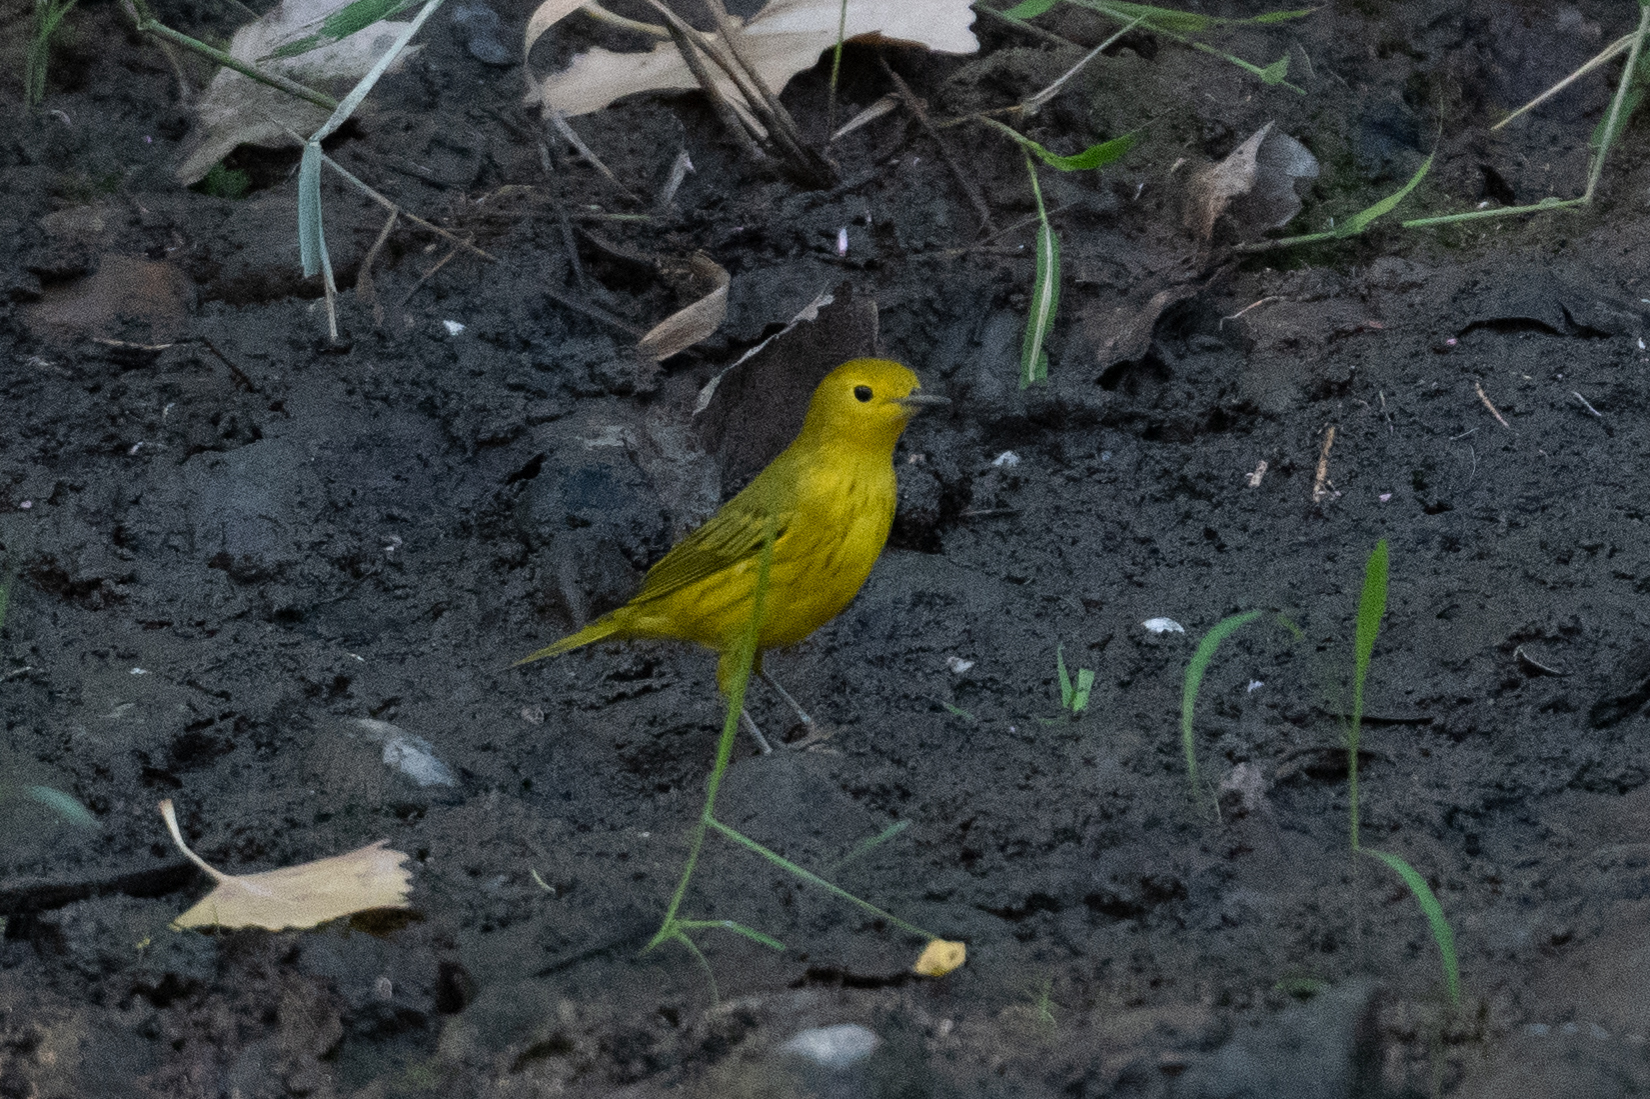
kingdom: Animalia
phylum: Chordata
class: Aves
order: Passeriformes
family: Parulidae
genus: Setophaga
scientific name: Setophaga petechia
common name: Yellow warbler
